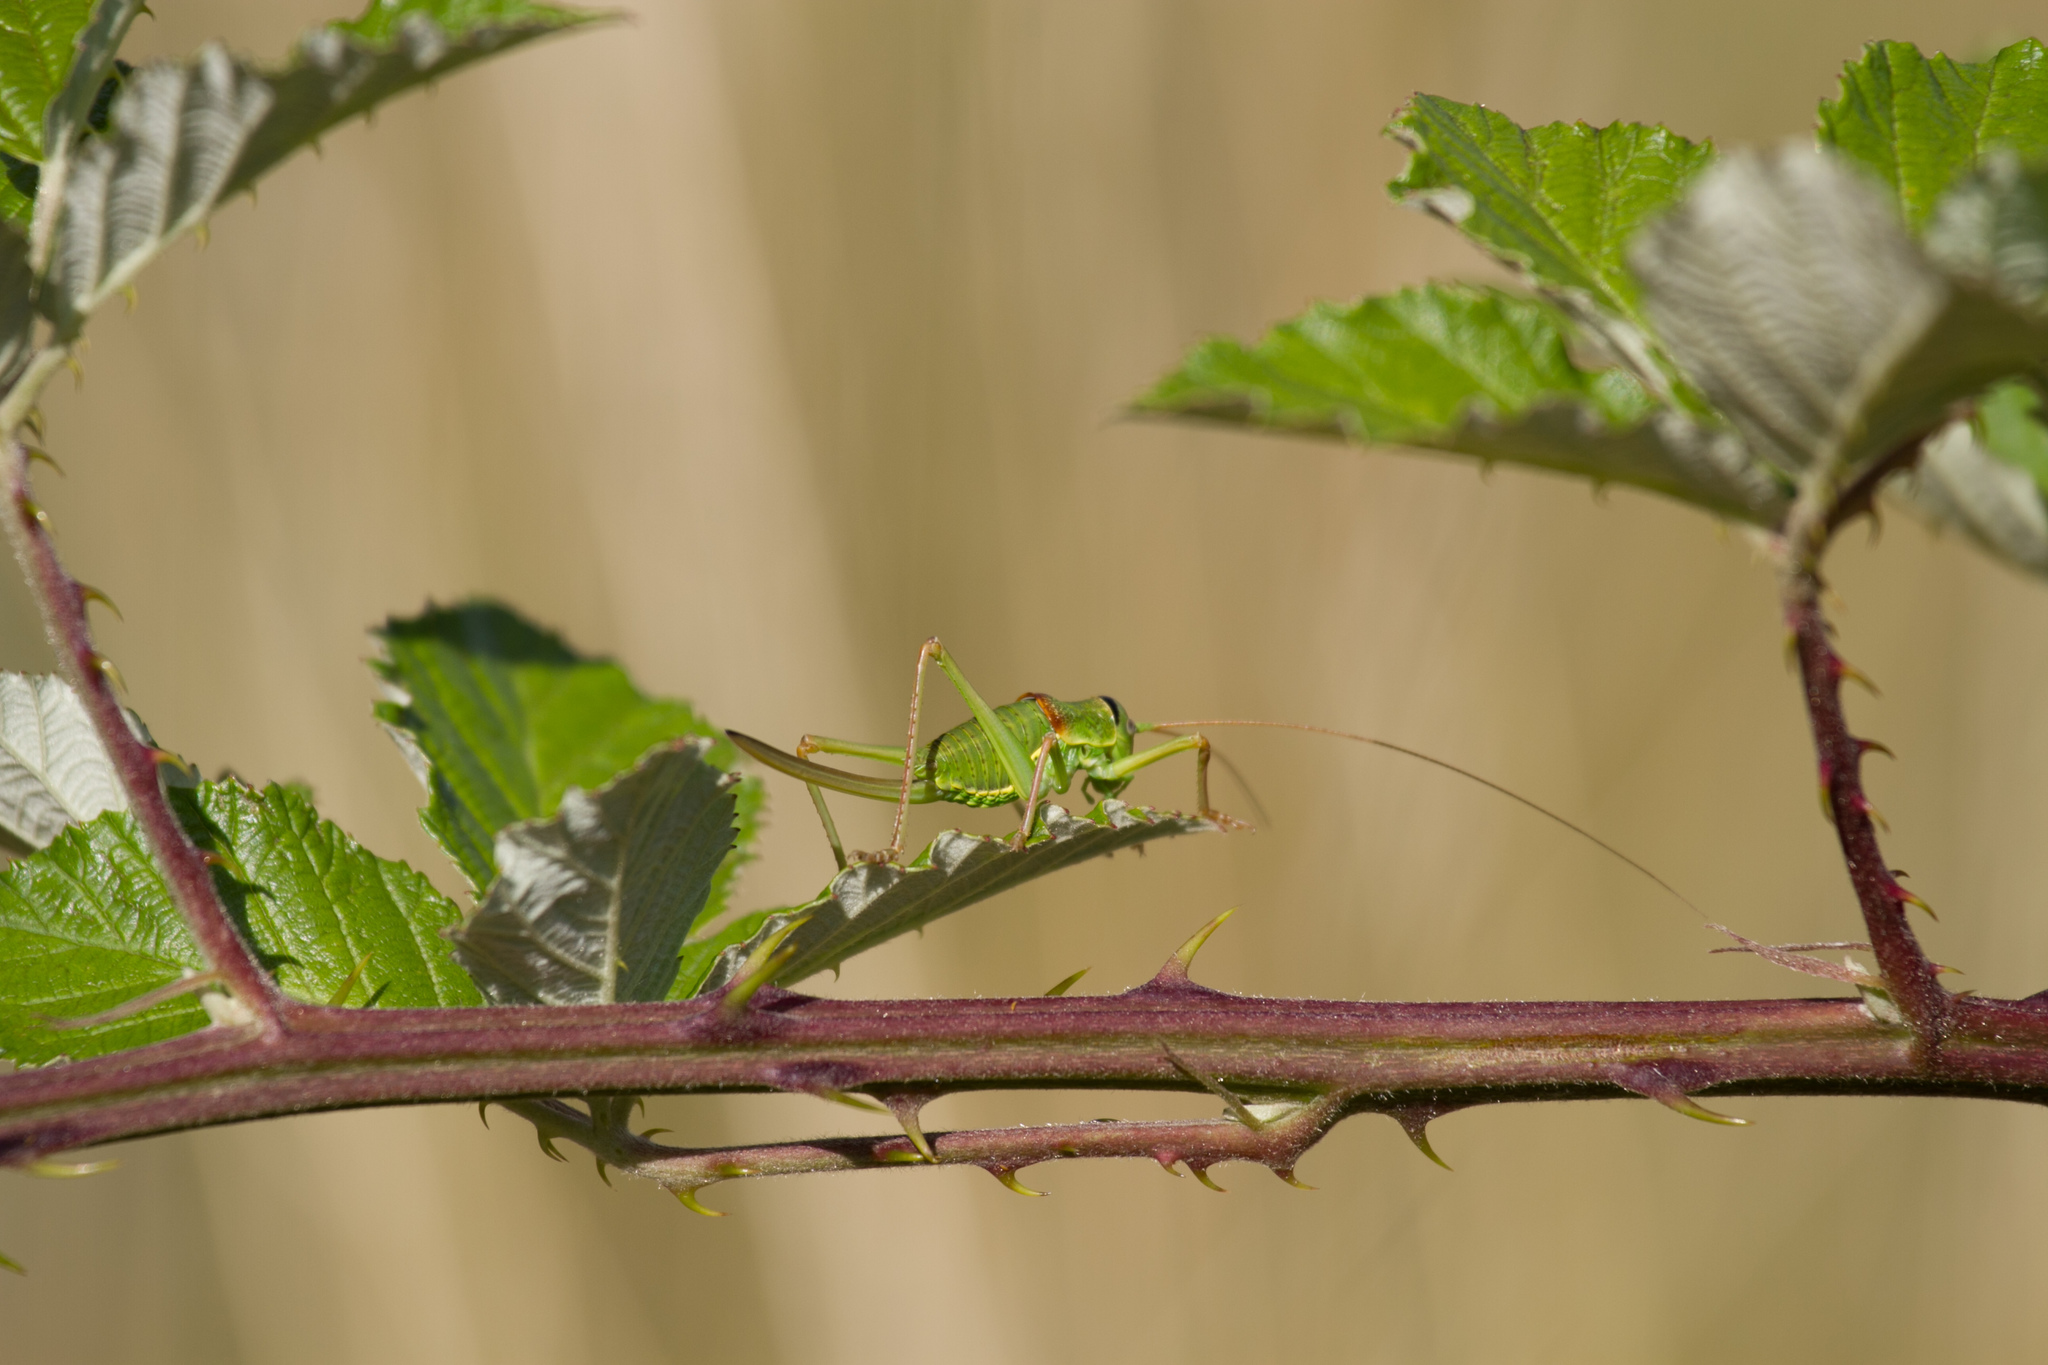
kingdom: Animalia
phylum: Arthropoda
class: Insecta
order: Orthoptera
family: Tettigoniidae
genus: Ephippiger
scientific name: Ephippiger diurnus
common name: Western saddle bush-cricket
